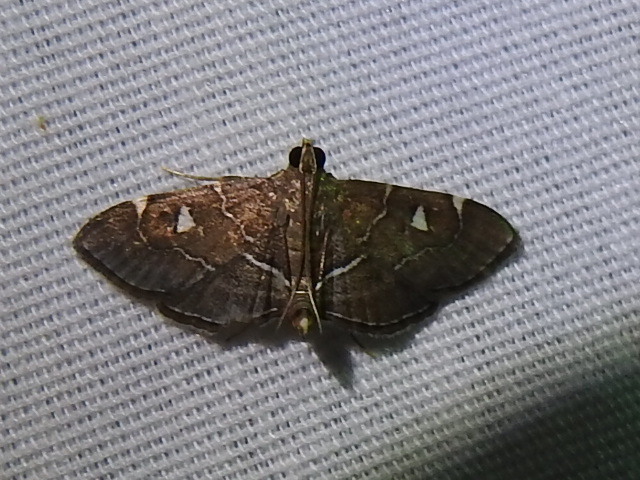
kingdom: Animalia
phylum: Arthropoda
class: Insecta
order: Lepidoptera
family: Crambidae
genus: Lamprosema
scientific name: Lamprosema victoriae
